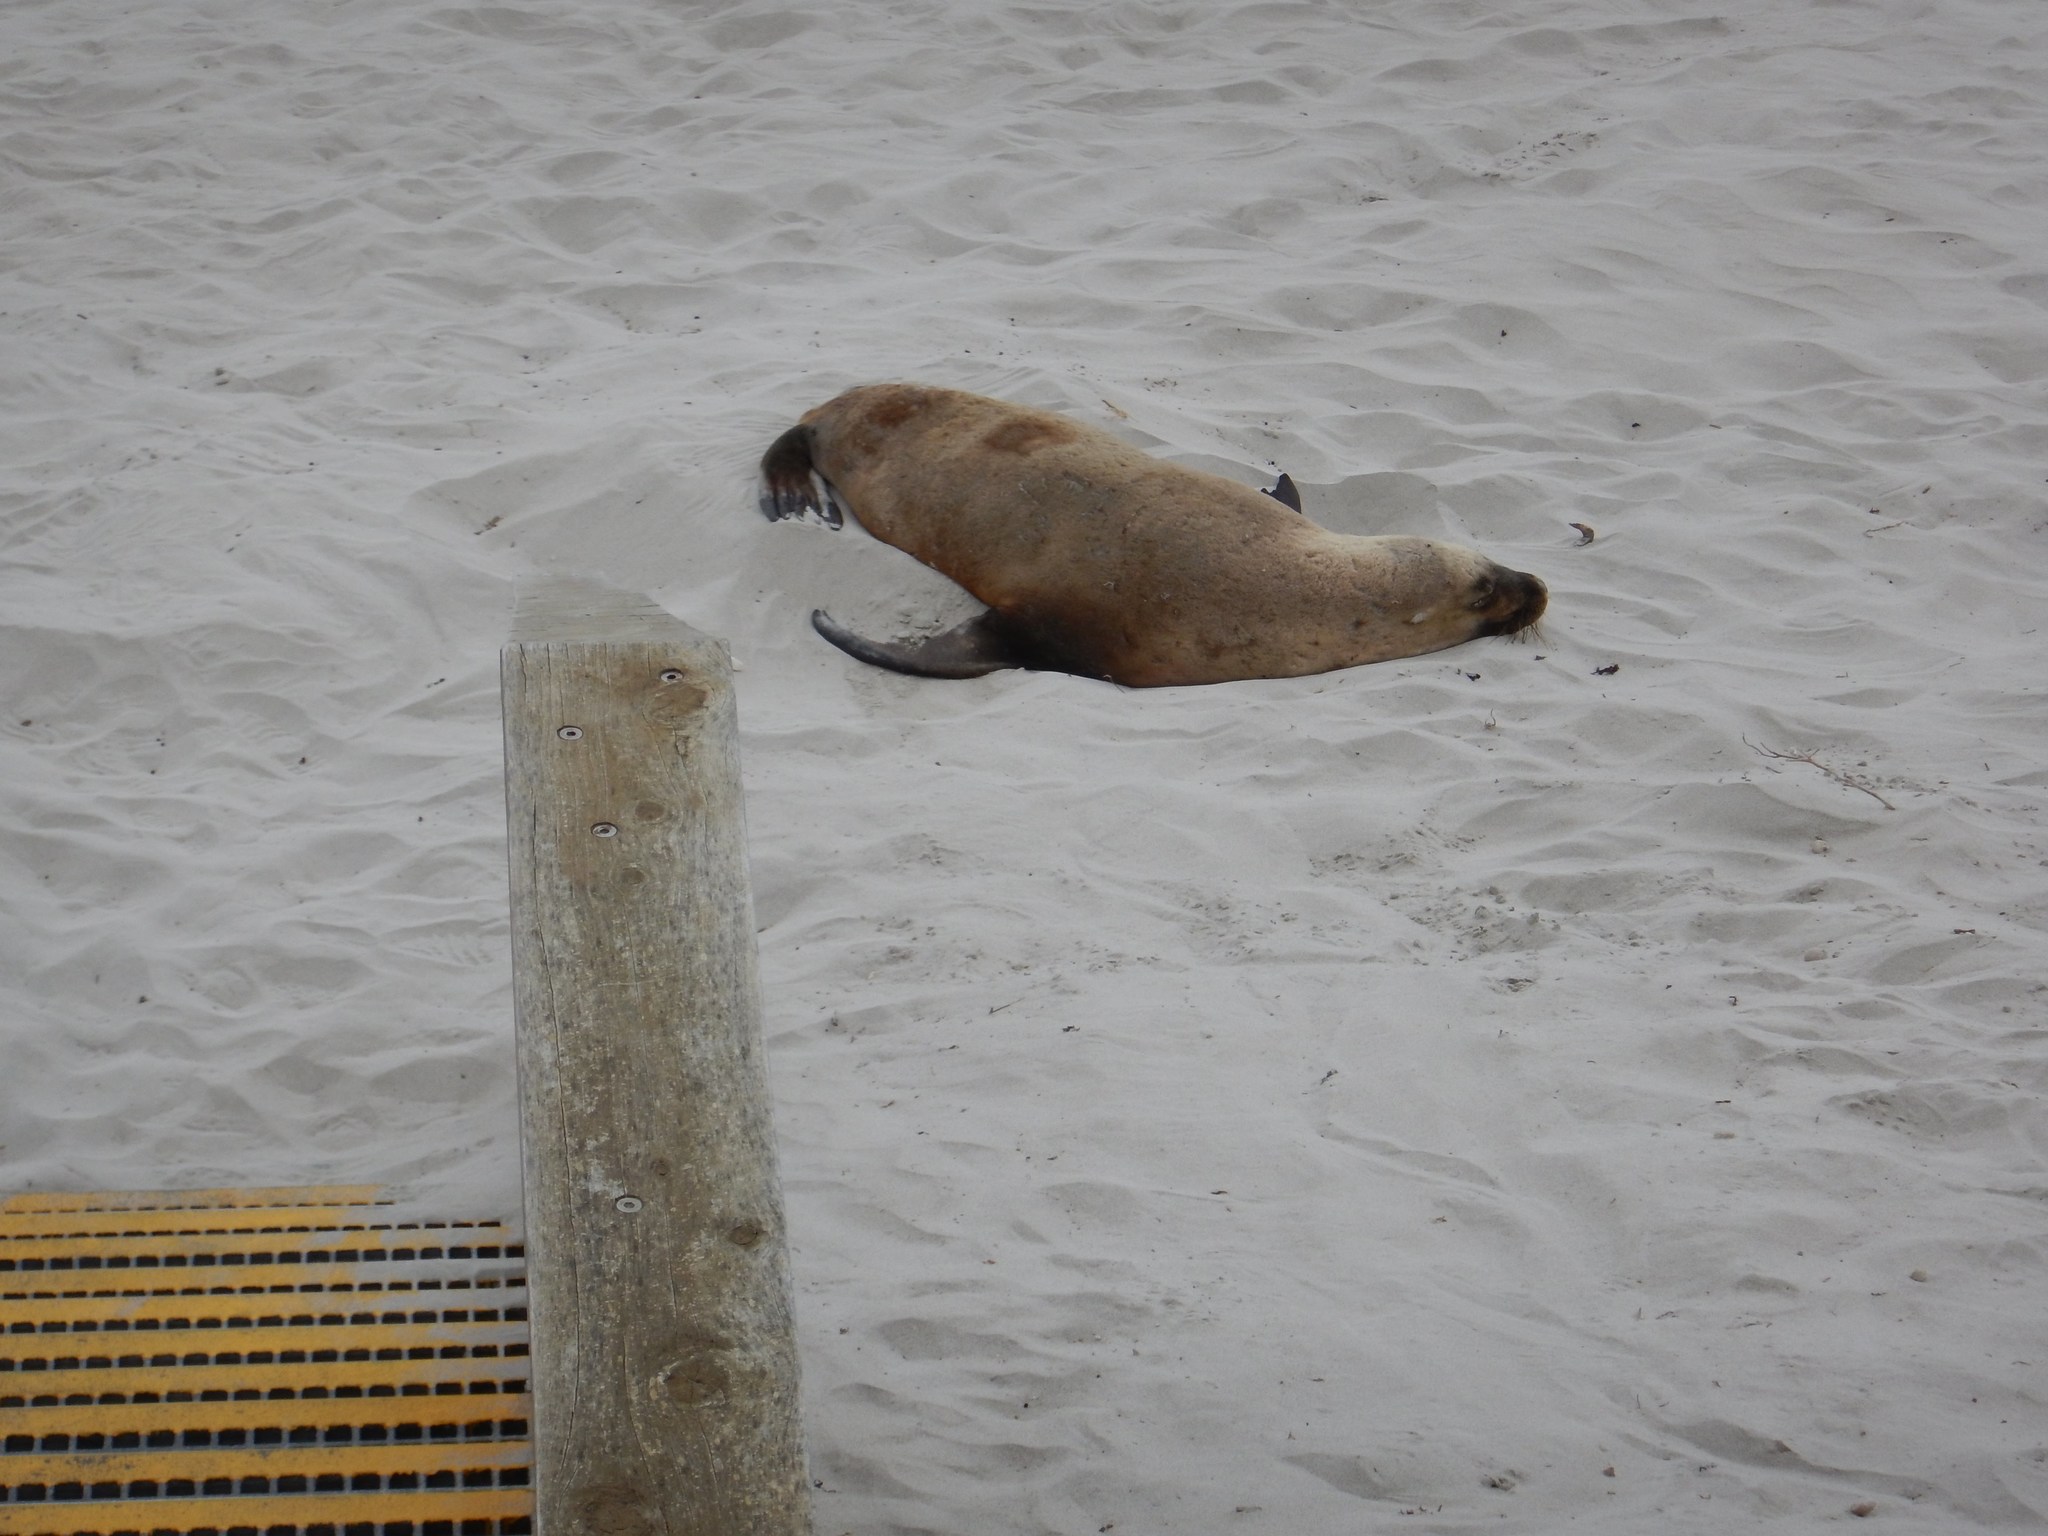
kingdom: Animalia
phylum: Chordata
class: Mammalia
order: Carnivora
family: Otariidae
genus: Neophoca
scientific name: Neophoca cinerea
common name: Australian sea lion
